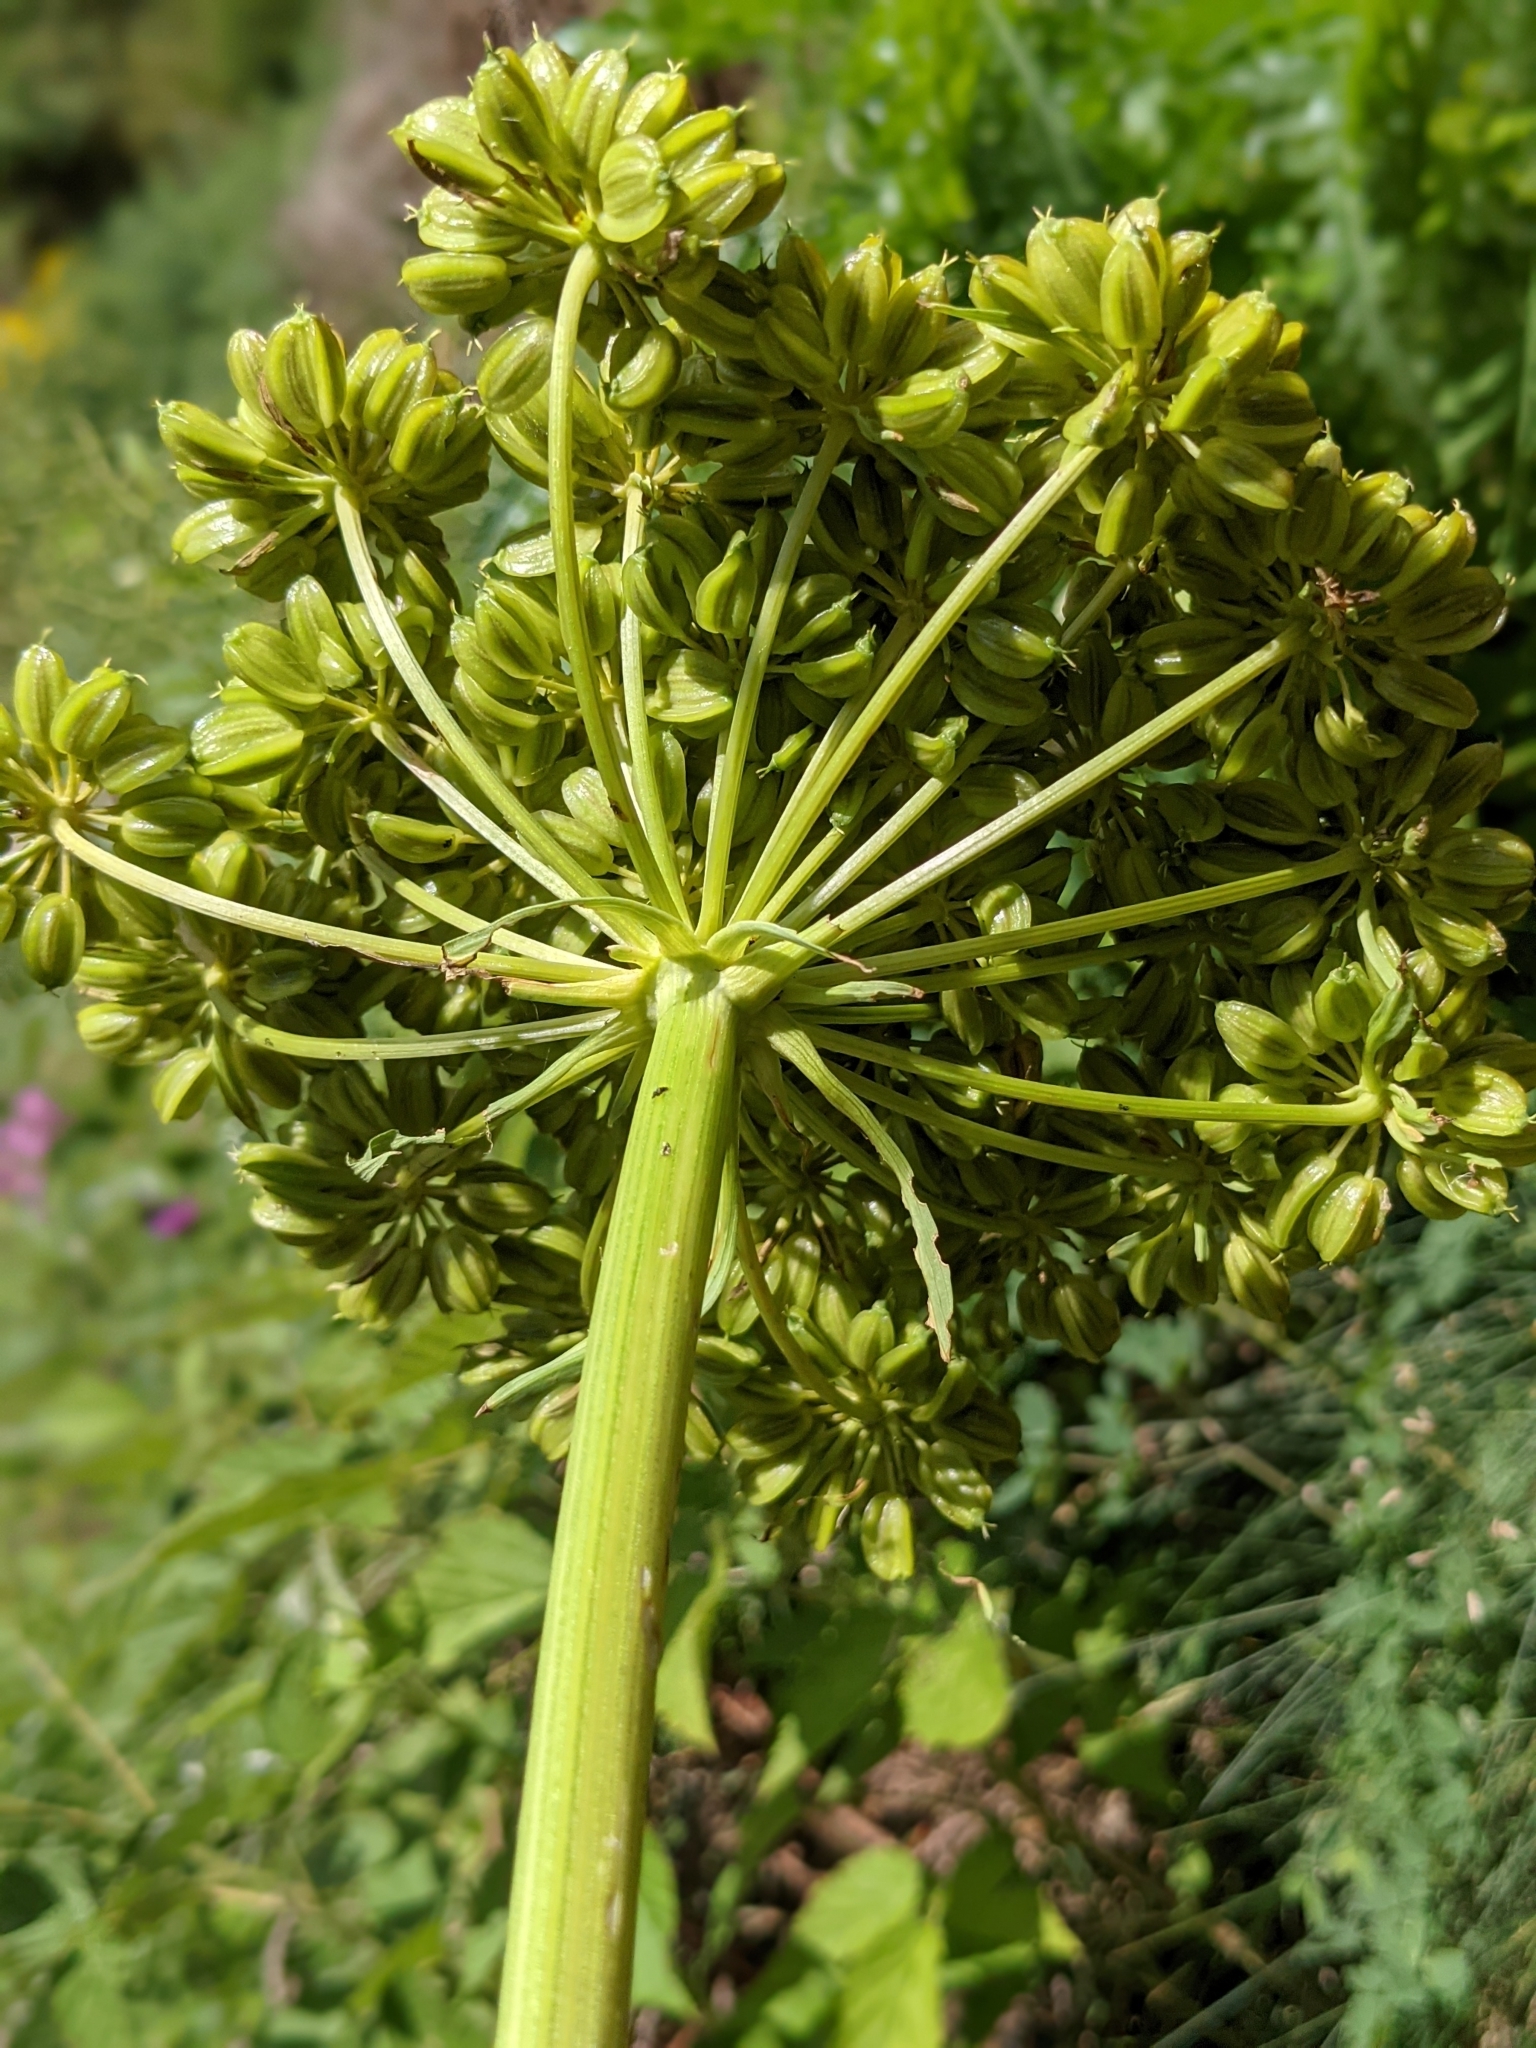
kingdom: Plantae
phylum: Tracheophyta
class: Magnoliopsida
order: Apiales
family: Apiaceae
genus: Molopospermum
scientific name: Molopospermum peloponnesiacum
